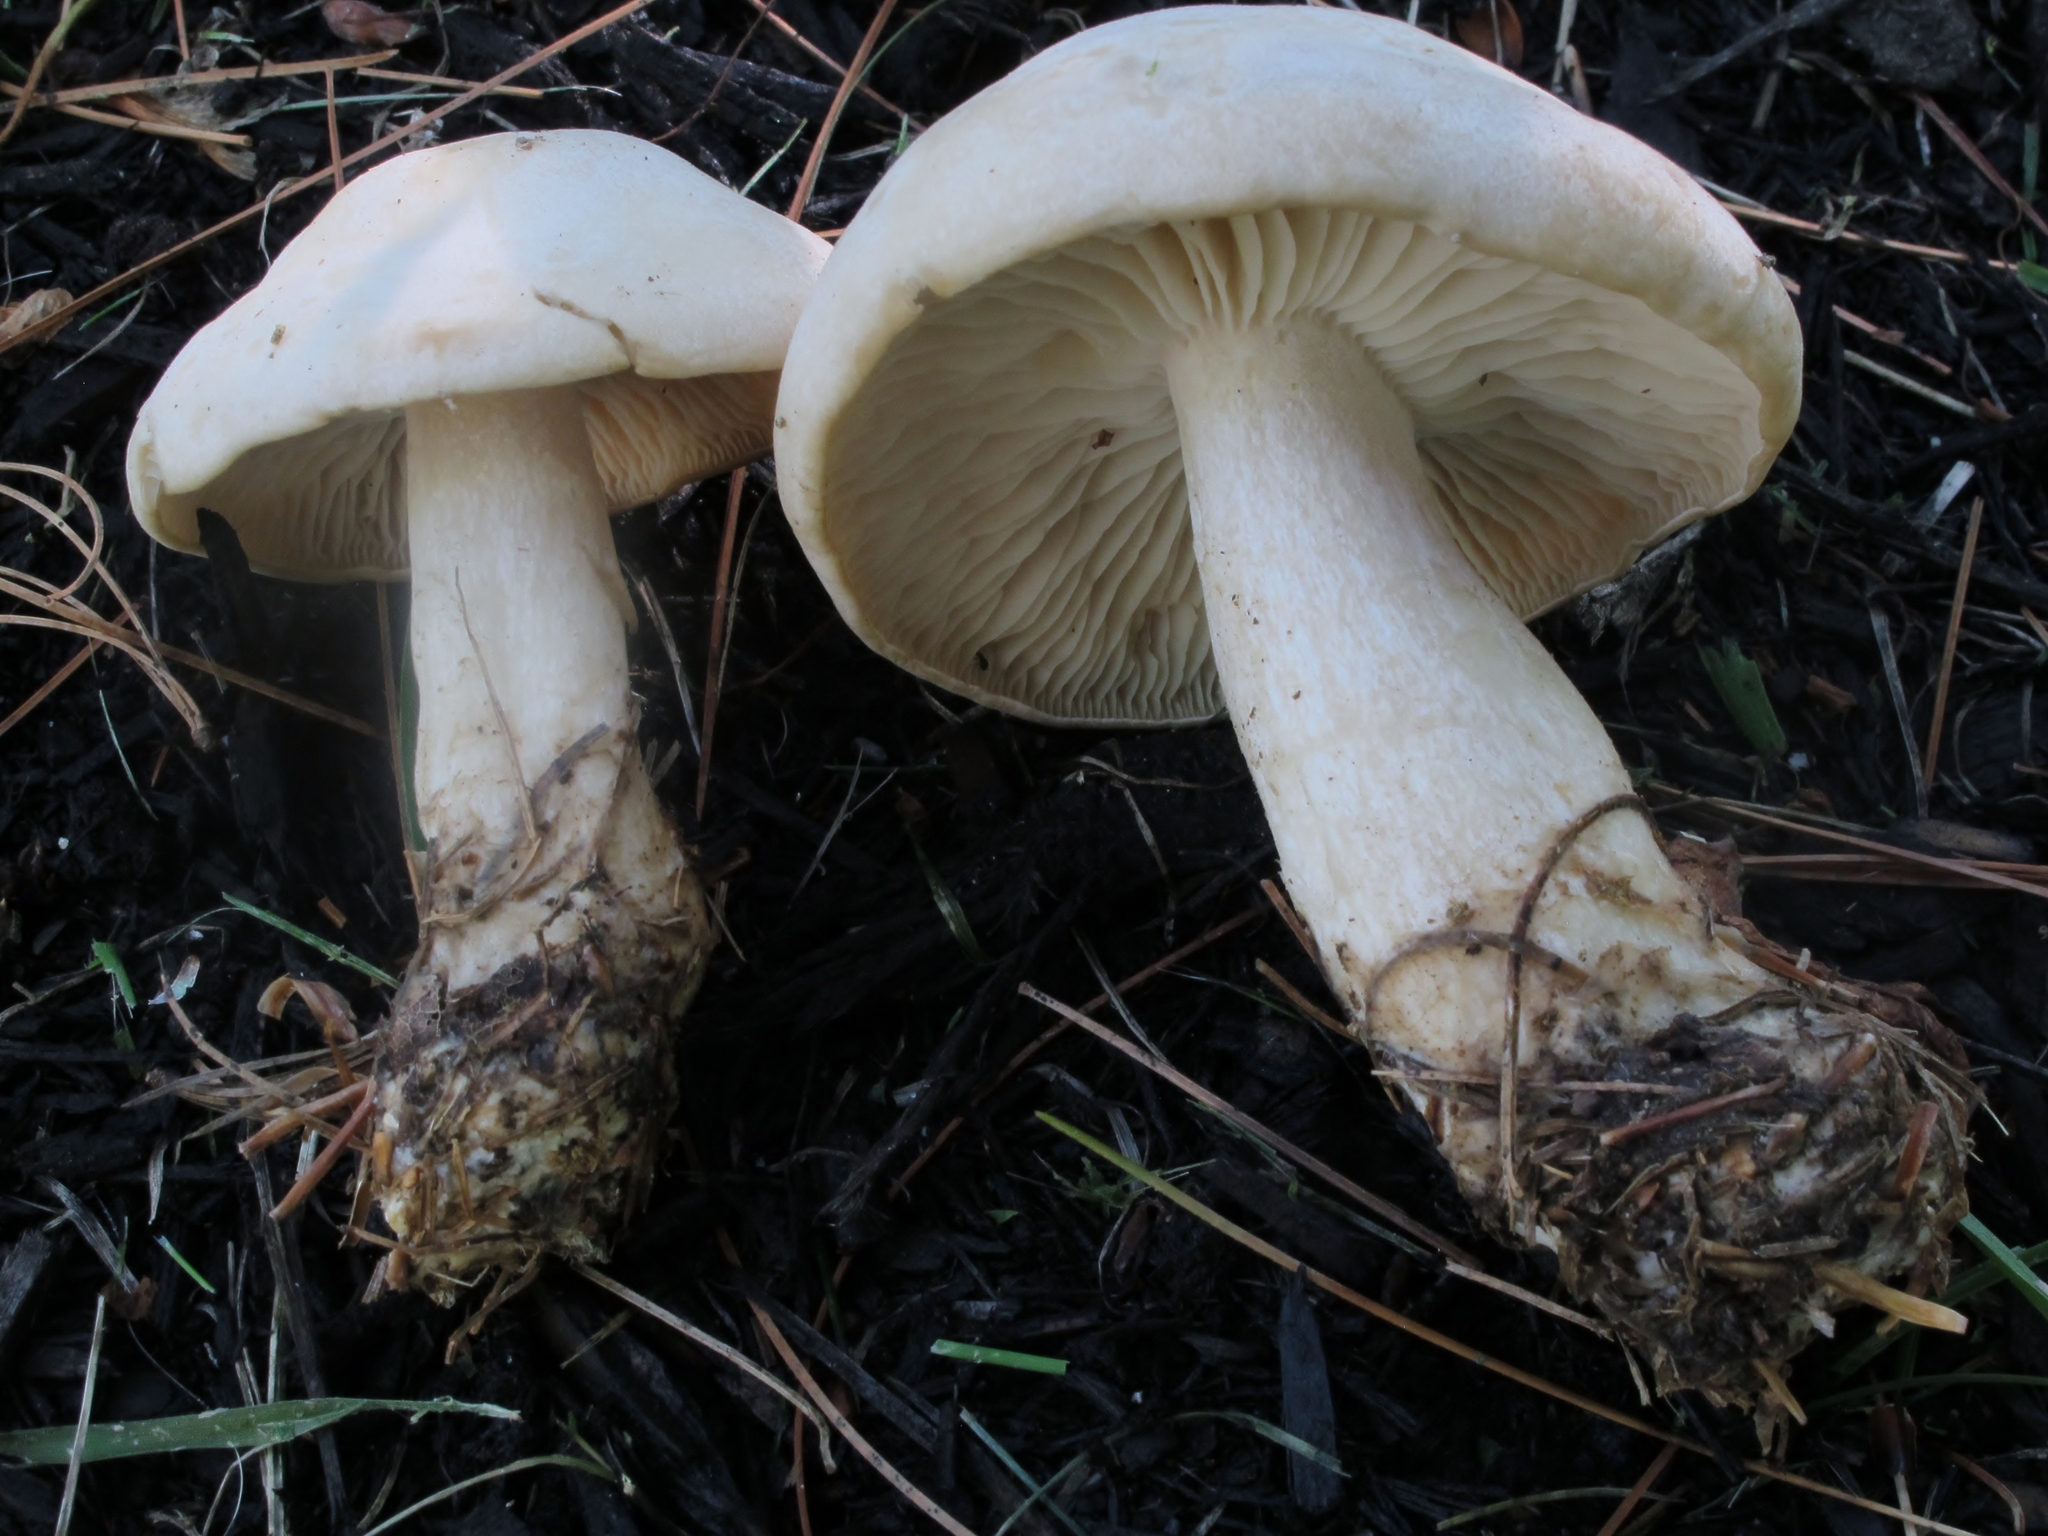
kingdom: Fungi
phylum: Basidiomycota
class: Agaricomycetes
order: Agaricales
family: Tricholomataceae
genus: Collybia
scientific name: Collybia
